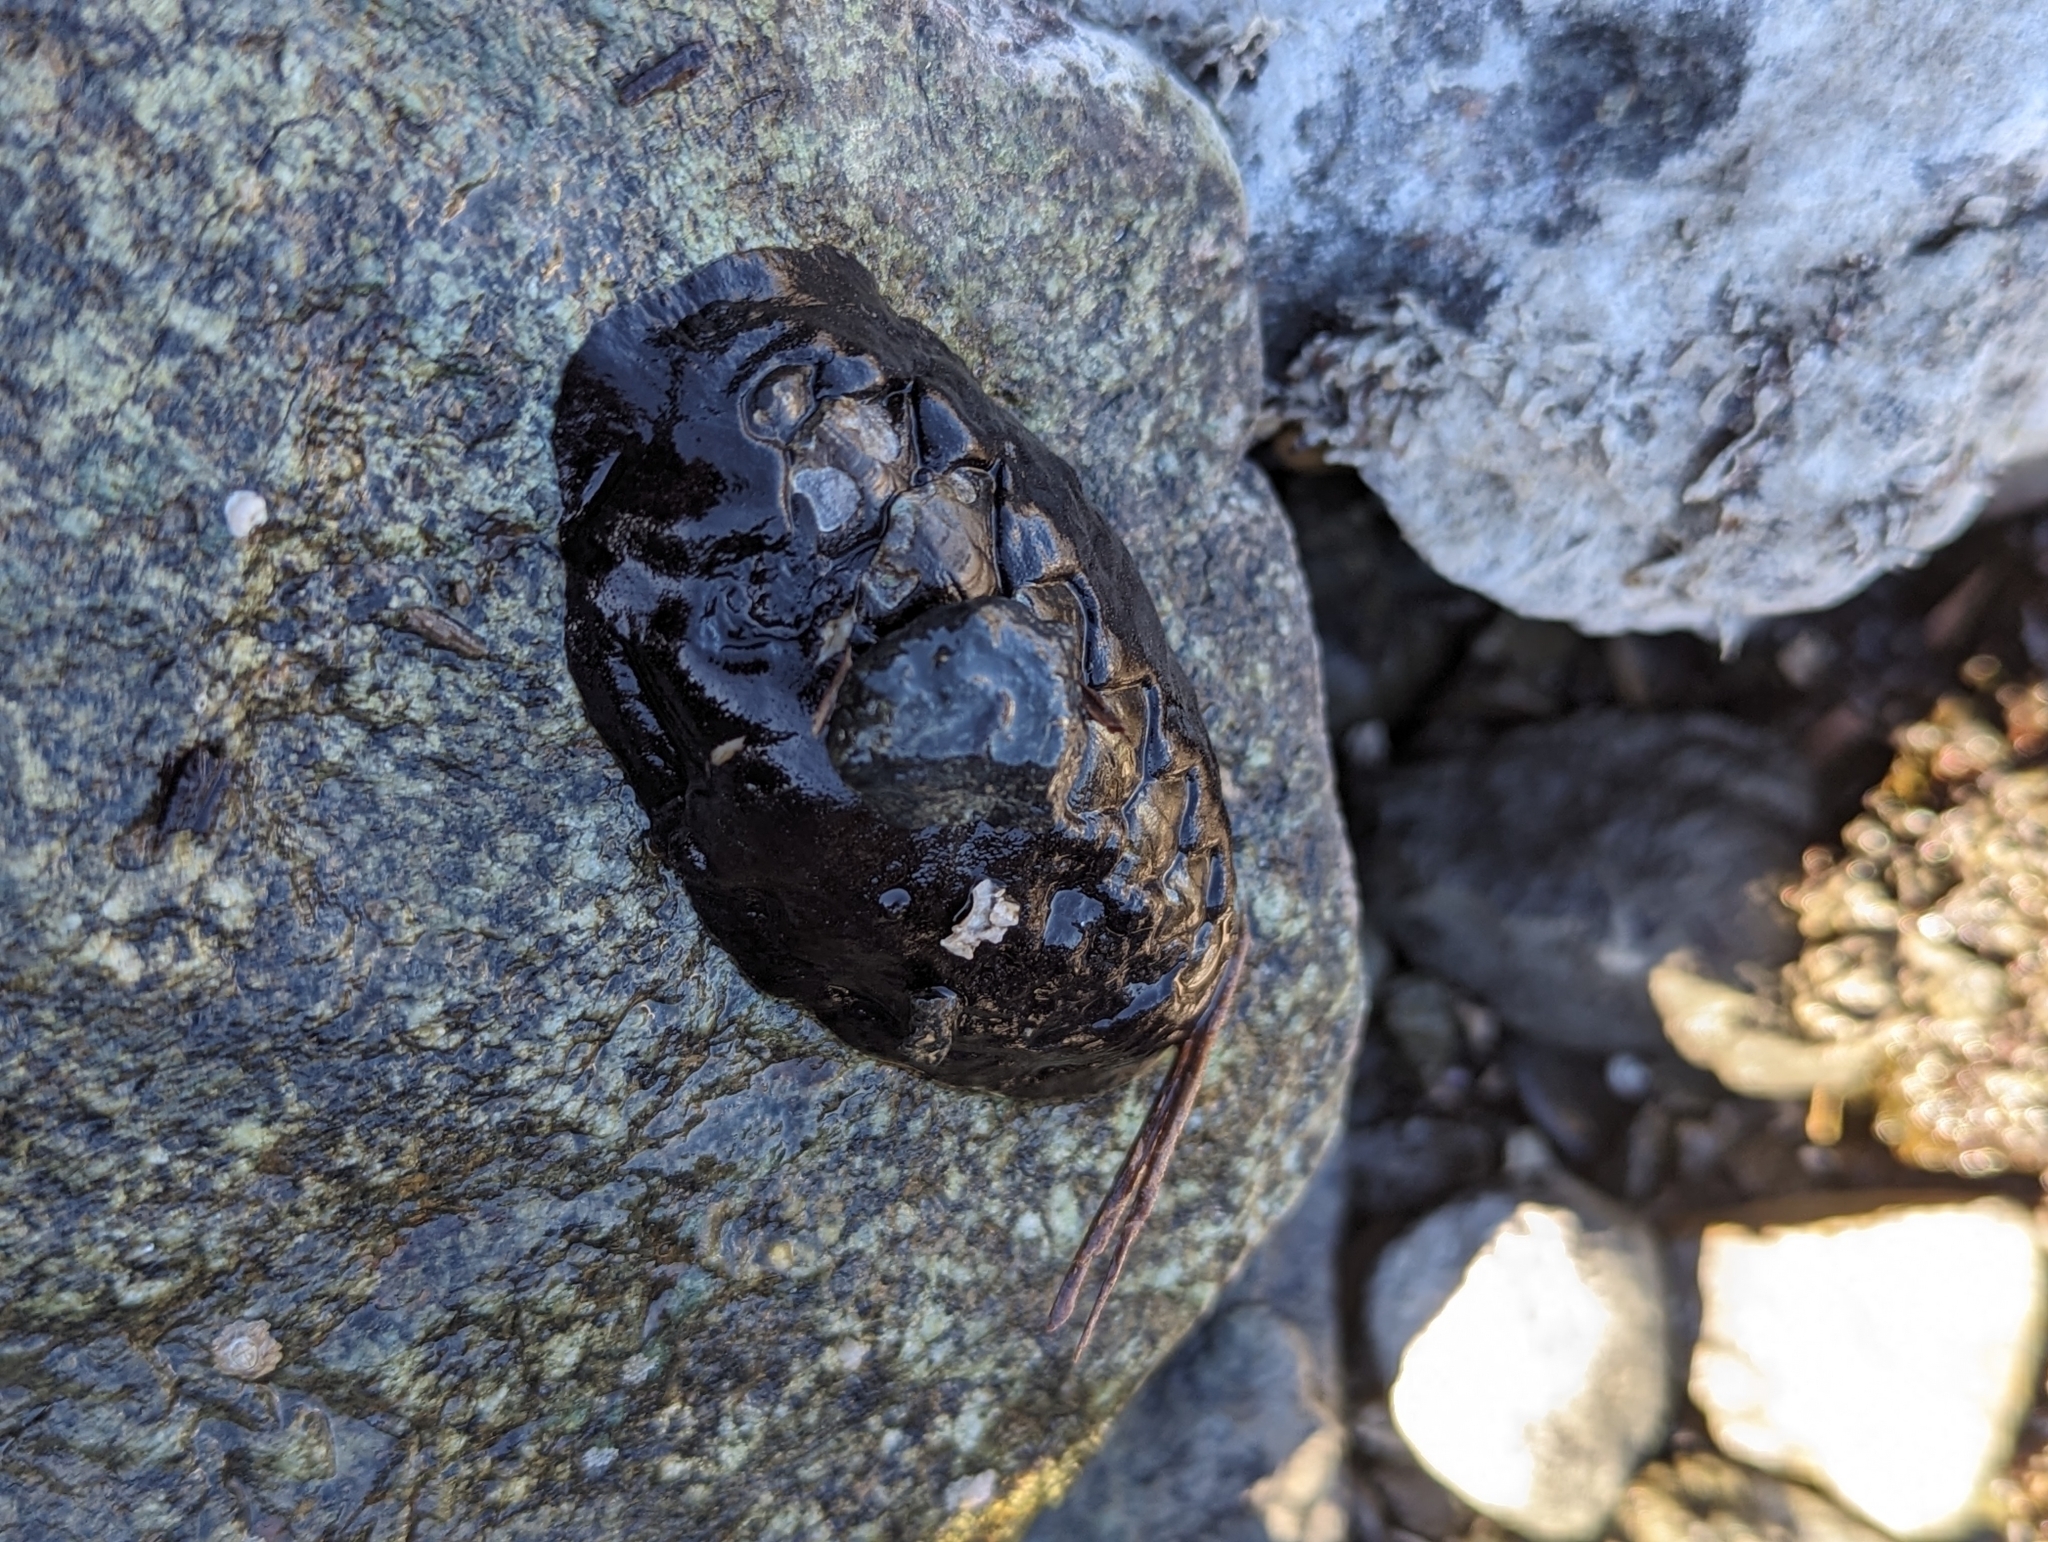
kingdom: Animalia
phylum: Mollusca
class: Polyplacophora
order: Chitonida
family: Mopaliidae
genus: Katharina
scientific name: Katharina tunicata
